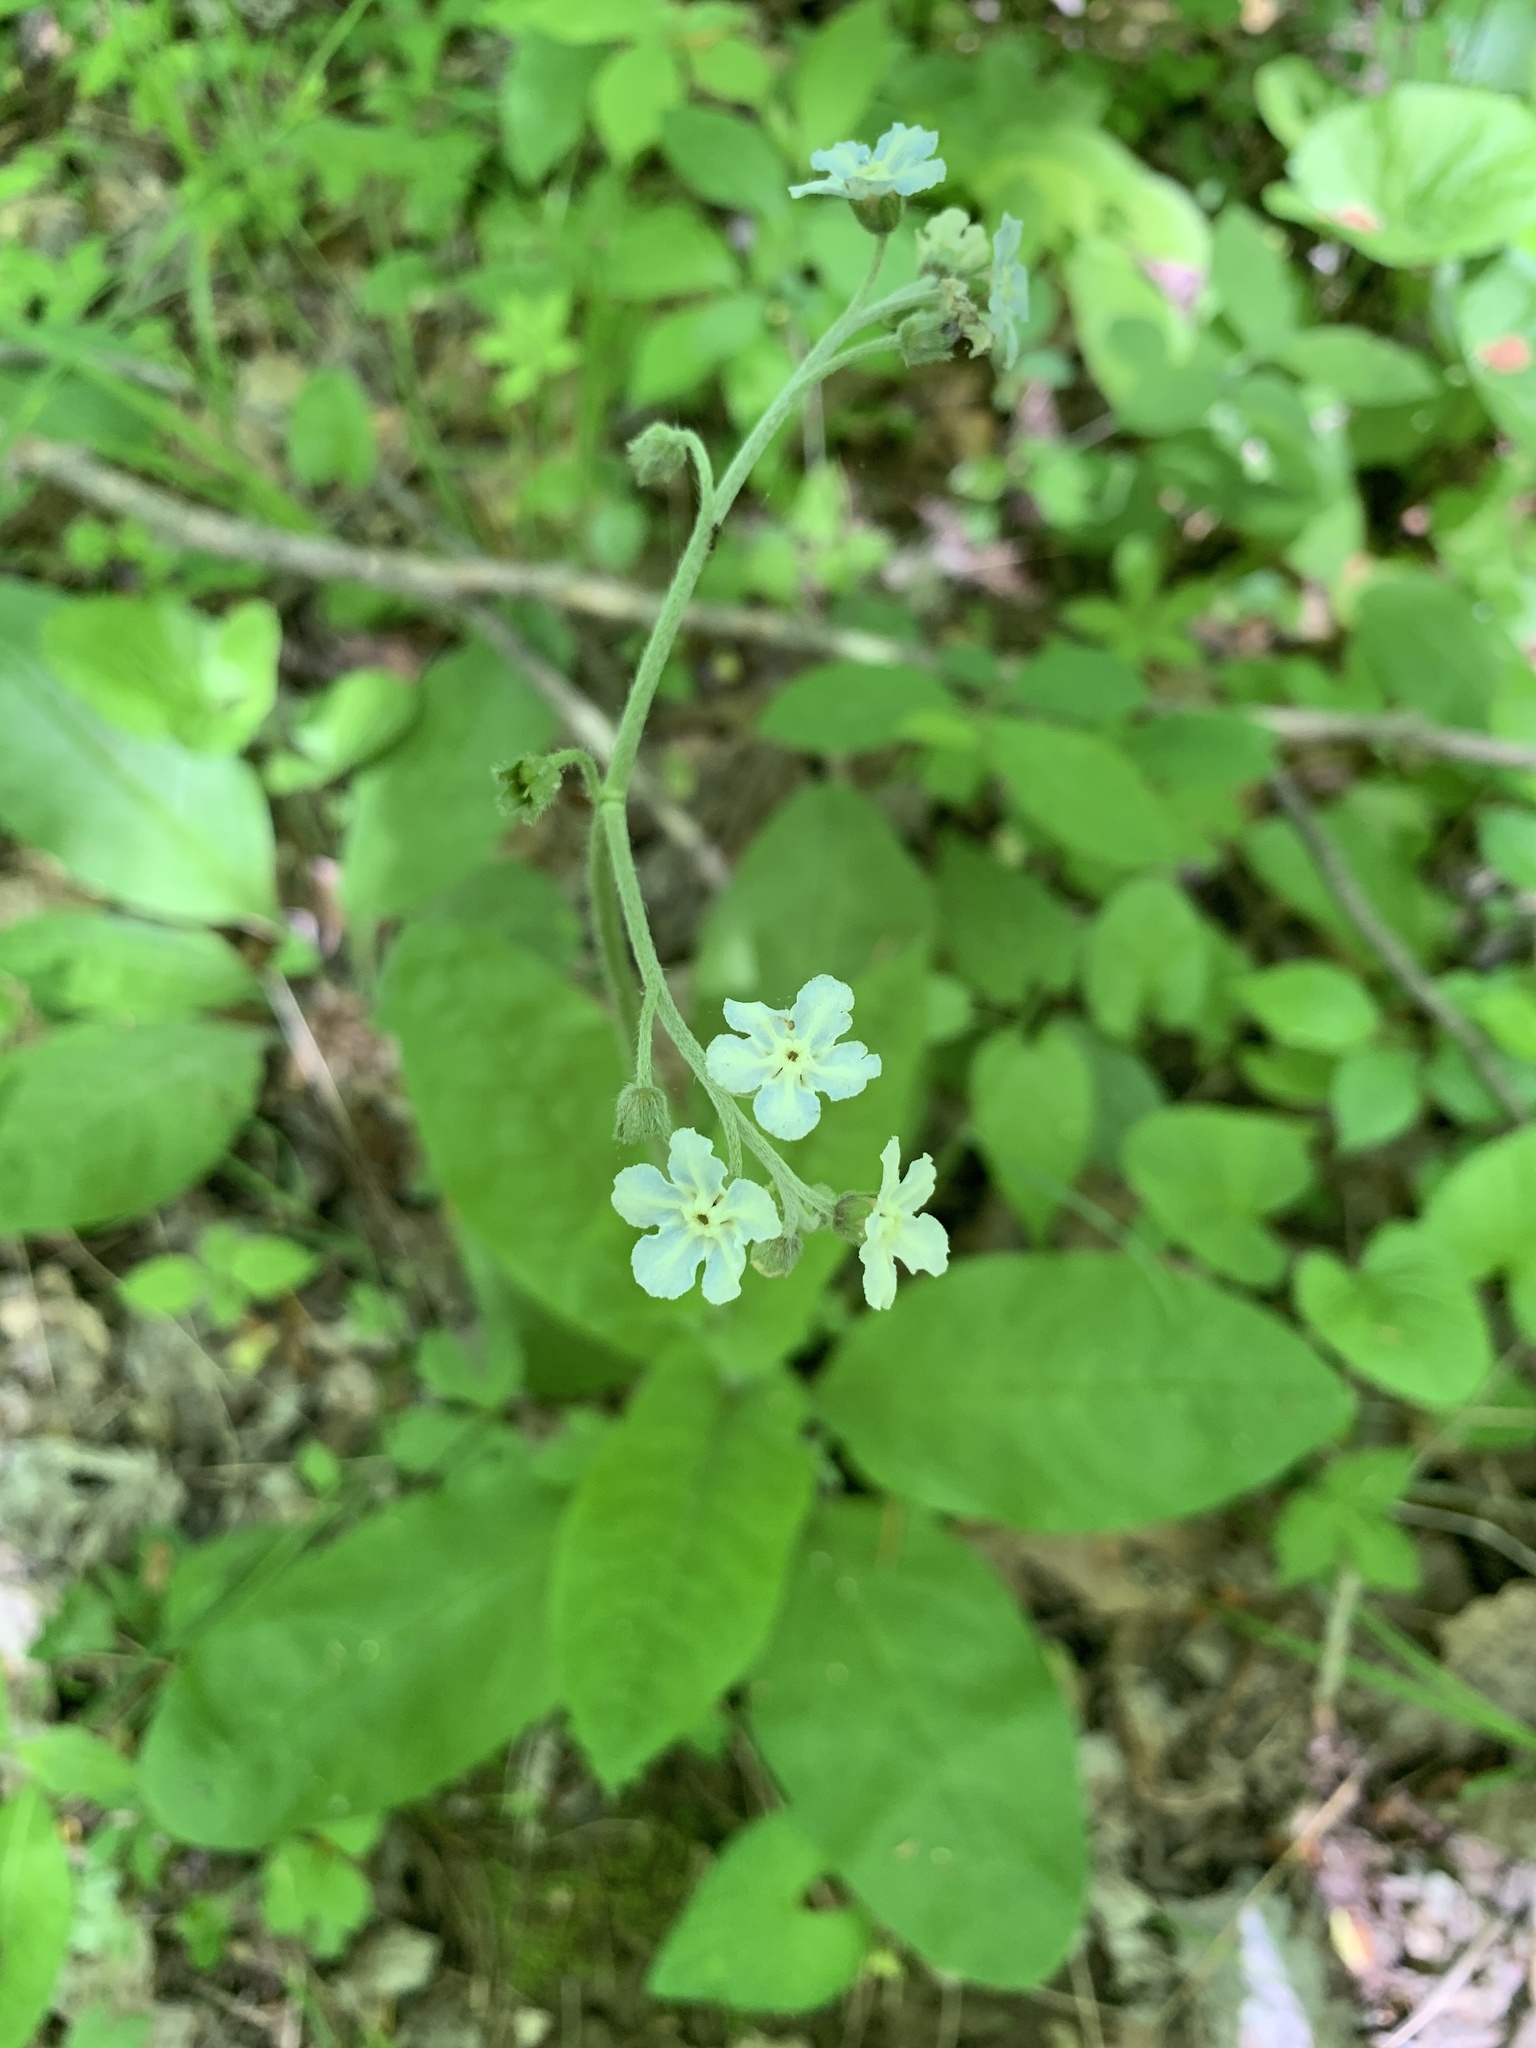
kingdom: Plantae
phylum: Tracheophyta
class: Magnoliopsida
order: Boraginales
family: Boraginaceae
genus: Andersonglossum
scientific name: Andersonglossum virginianum
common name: Wild comfrey
